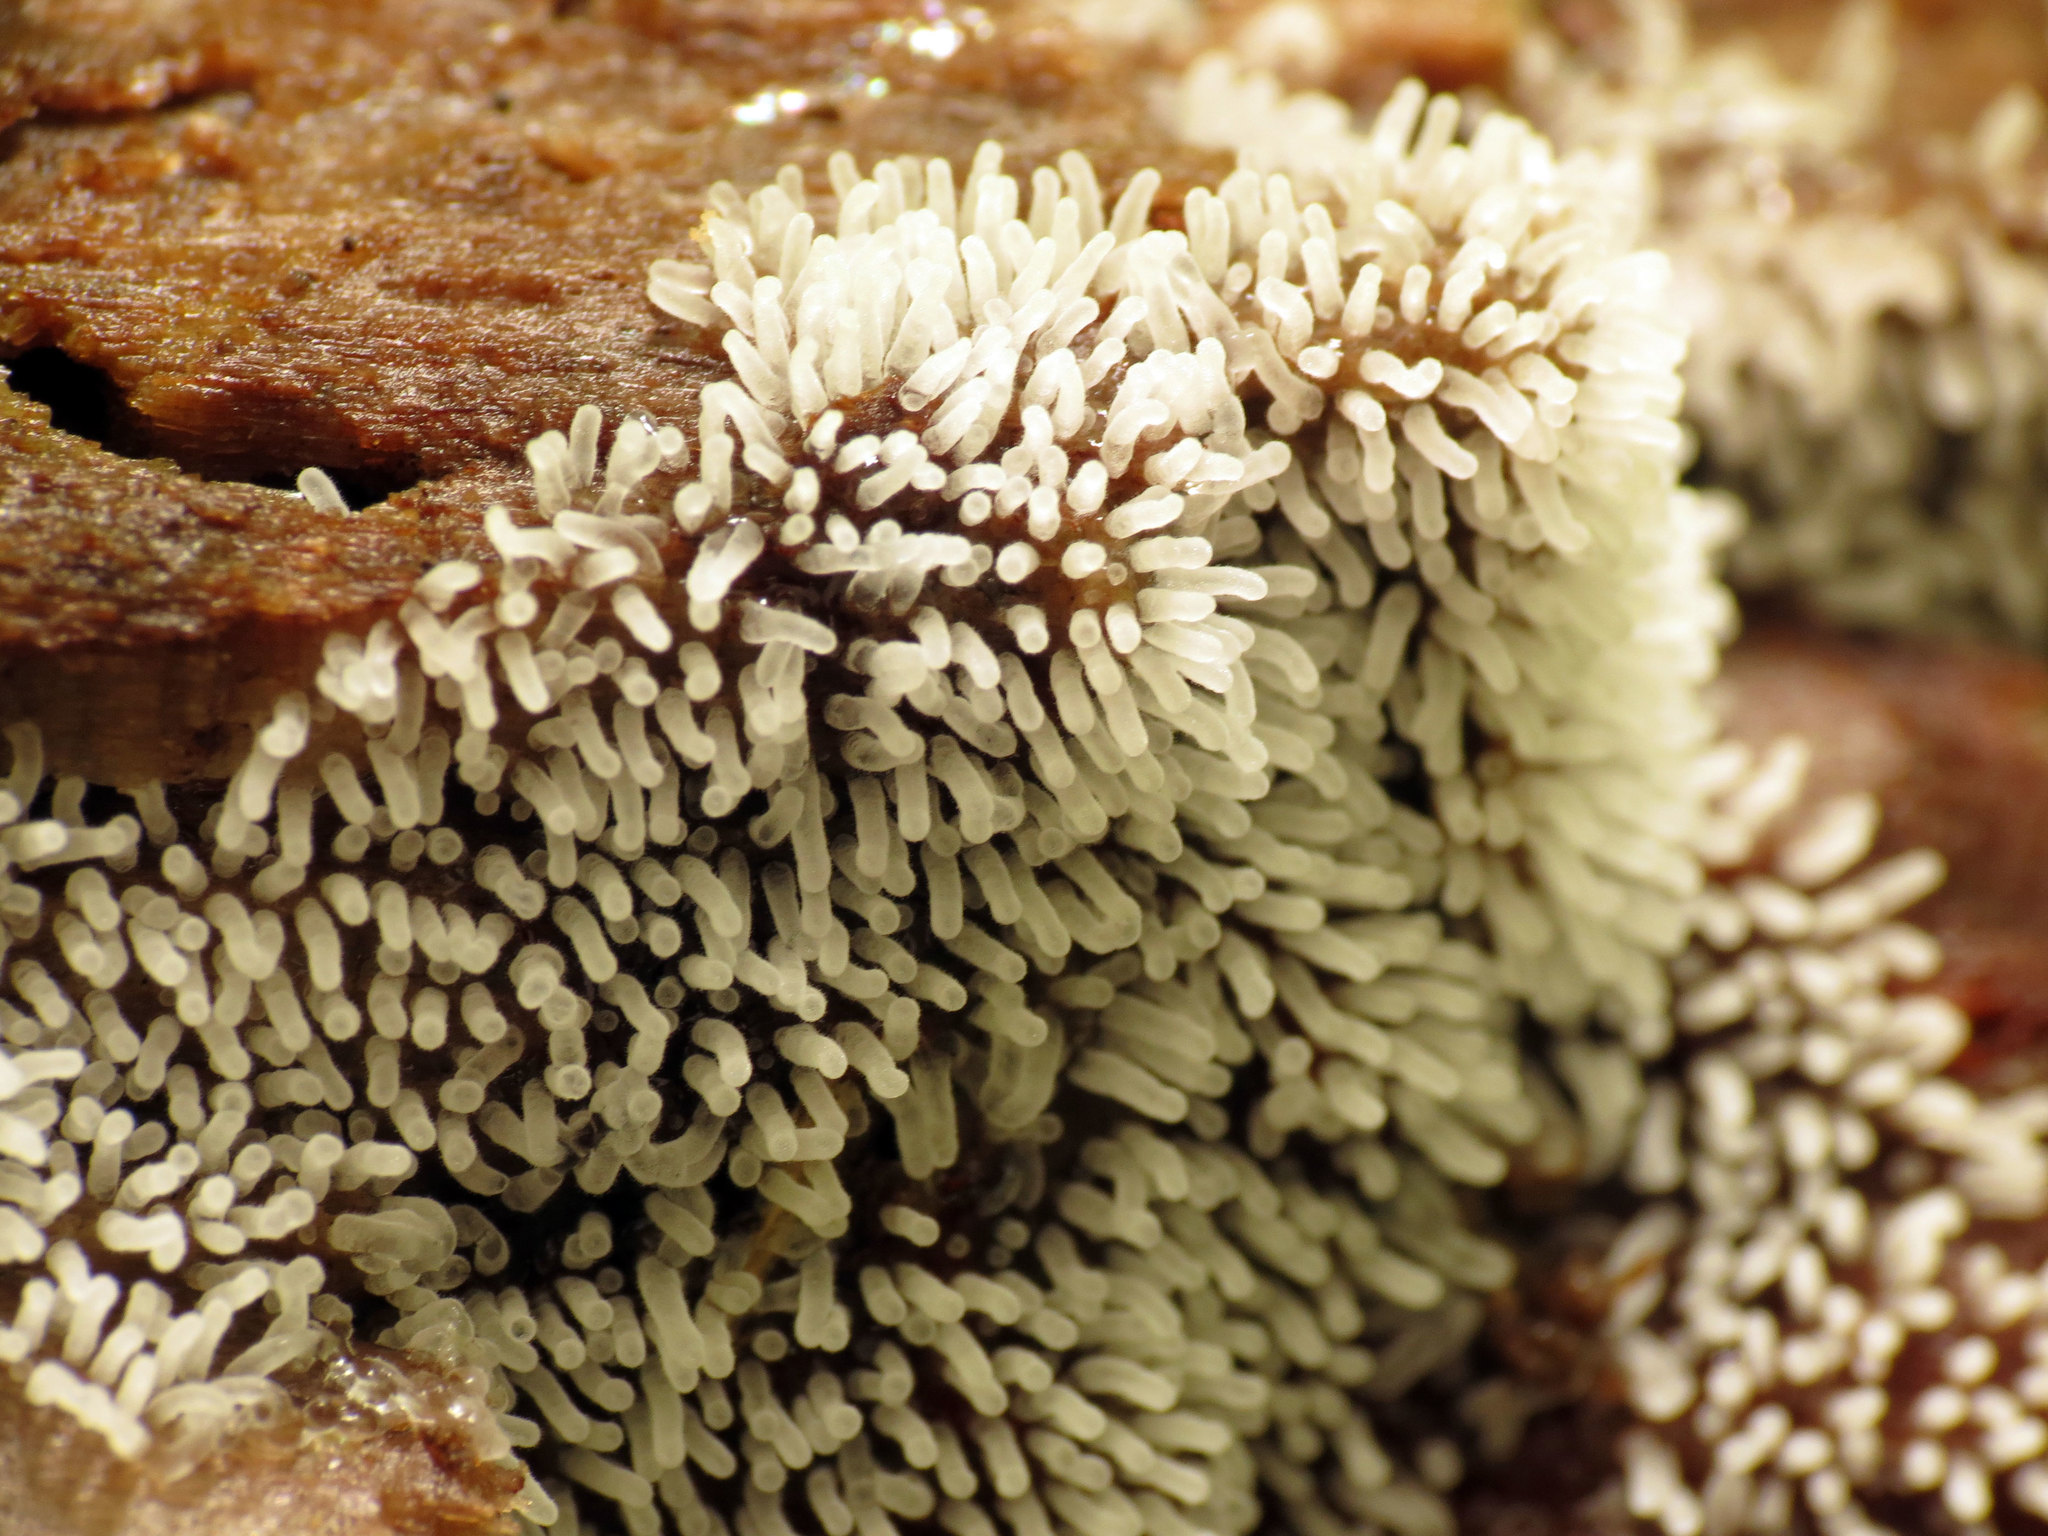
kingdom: Protozoa
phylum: Mycetozoa
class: Protosteliomycetes
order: Ceratiomyxales
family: Ceratiomyxaceae
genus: Ceratiomyxa
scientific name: Ceratiomyxa fruticulosa
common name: Honeycomb coral slime mold
